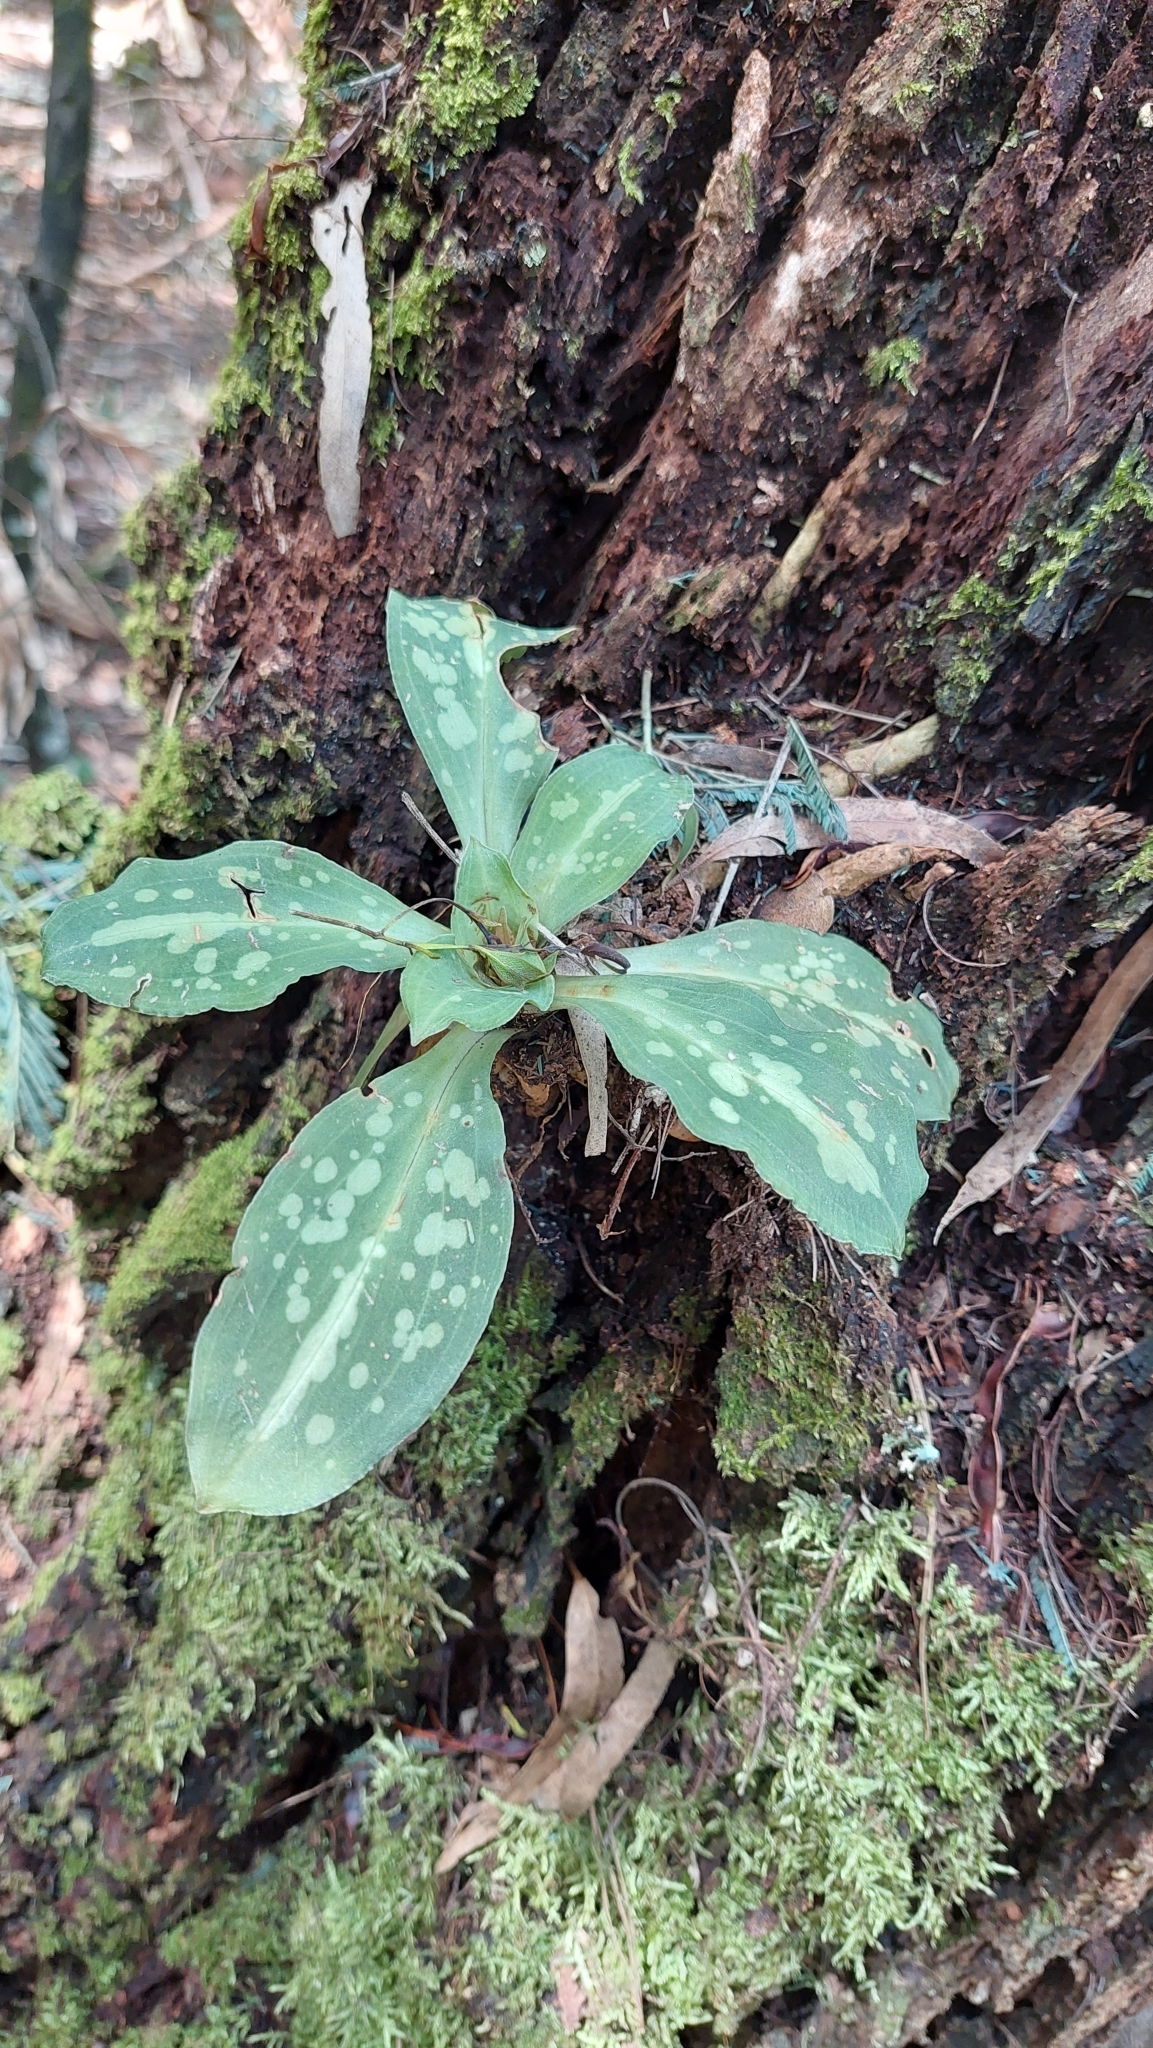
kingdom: Plantae
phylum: Tracheophyta
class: Liliopsida
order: Asparagales
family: Orchidaceae
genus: Stenorrhynchos
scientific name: Stenorrhynchos albidomaculatum
